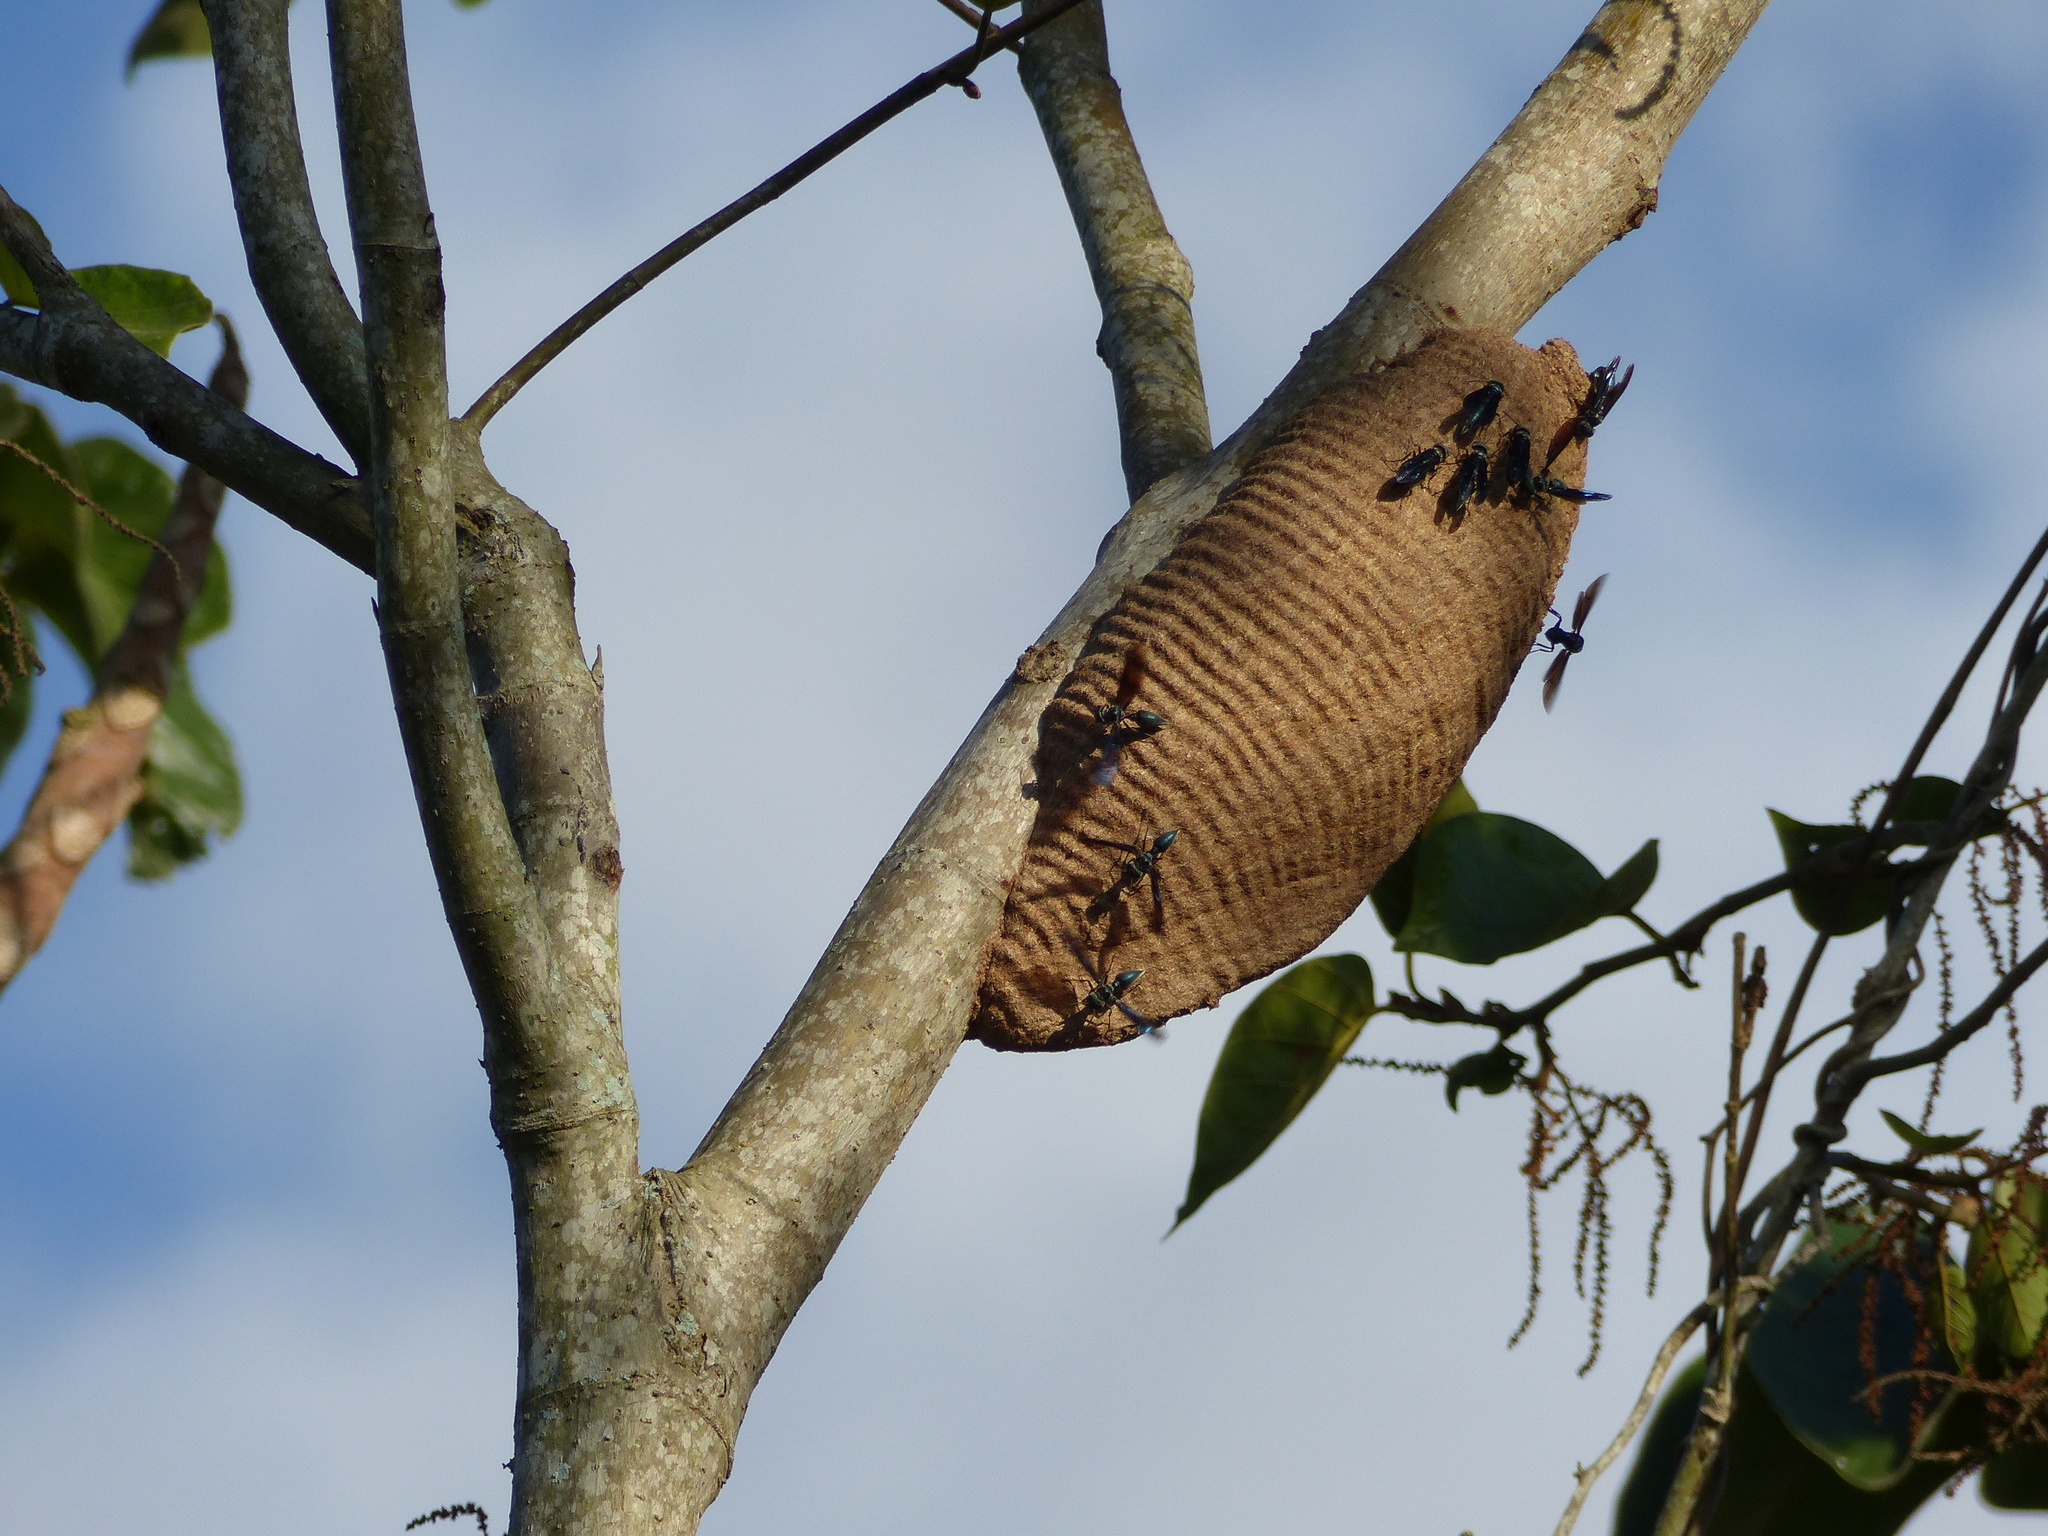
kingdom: Animalia
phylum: Arthropoda
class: Insecta
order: Hymenoptera
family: Vespidae
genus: Synoeca
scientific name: Synoeca cyanea
